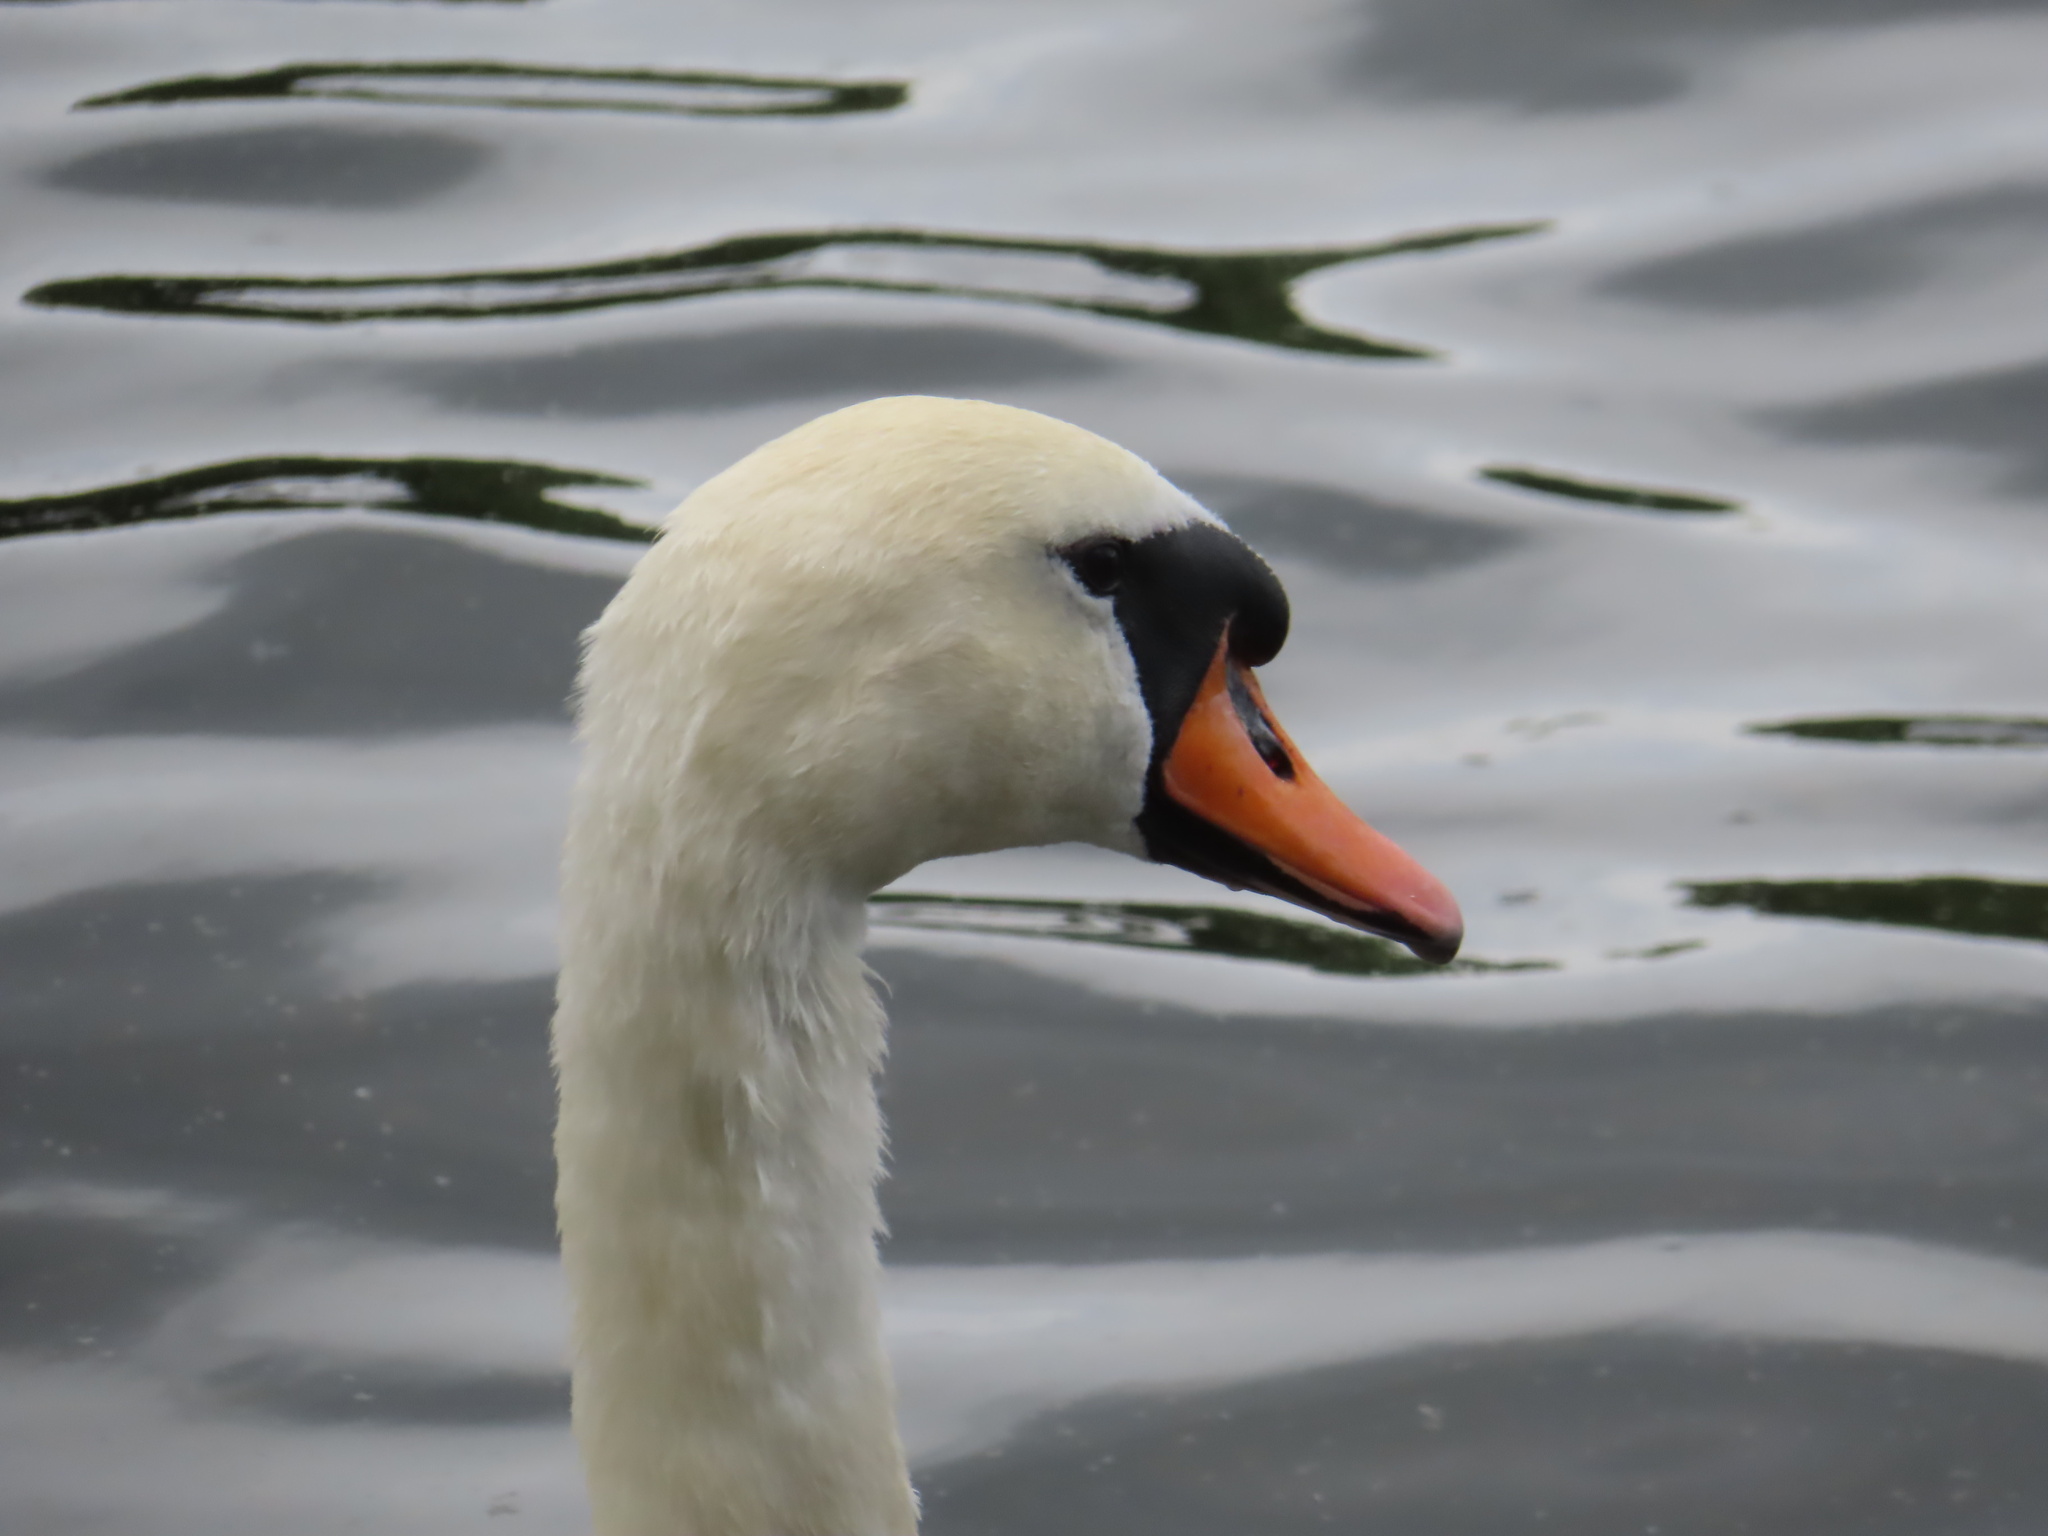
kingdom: Animalia
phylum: Chordata
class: Aves
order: Anseriformes
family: Anatidae
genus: Cygnus
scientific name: Cygnus olor
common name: Mute swan
